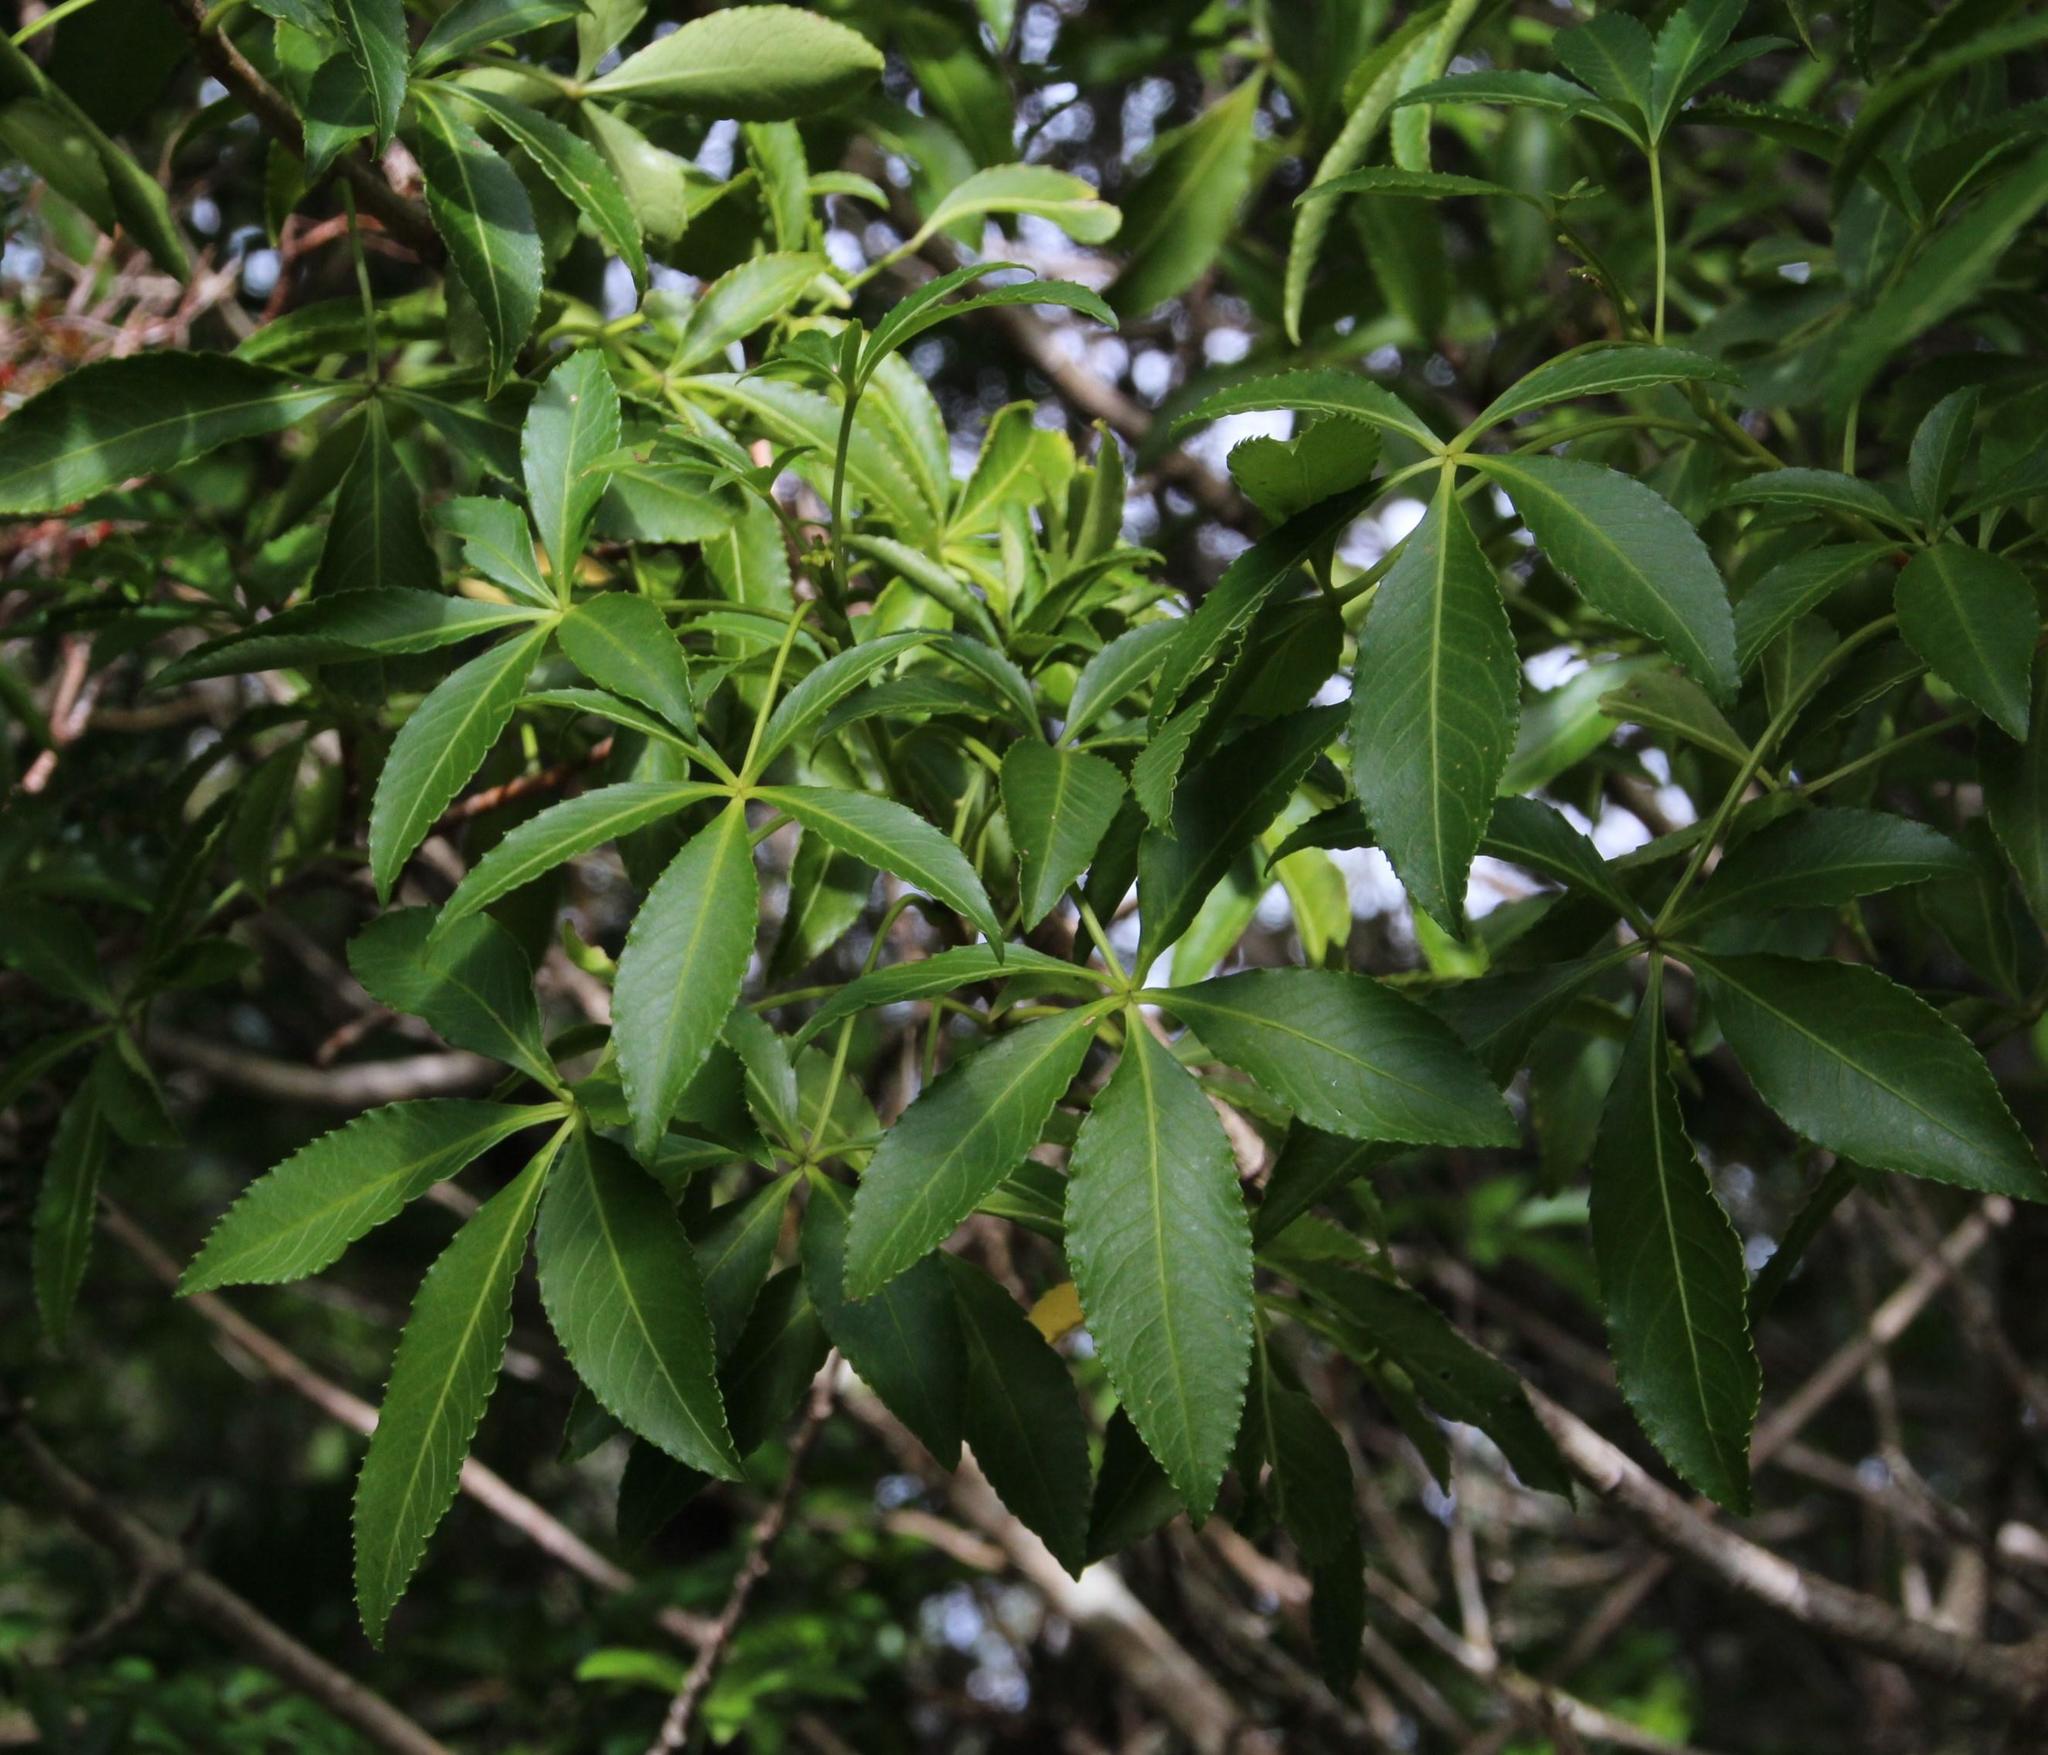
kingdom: Plantae
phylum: Tracheophyta
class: Magnoliopsida
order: Apiales
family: Araliaceae
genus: Raukaua
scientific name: Raukaua laetevirens
